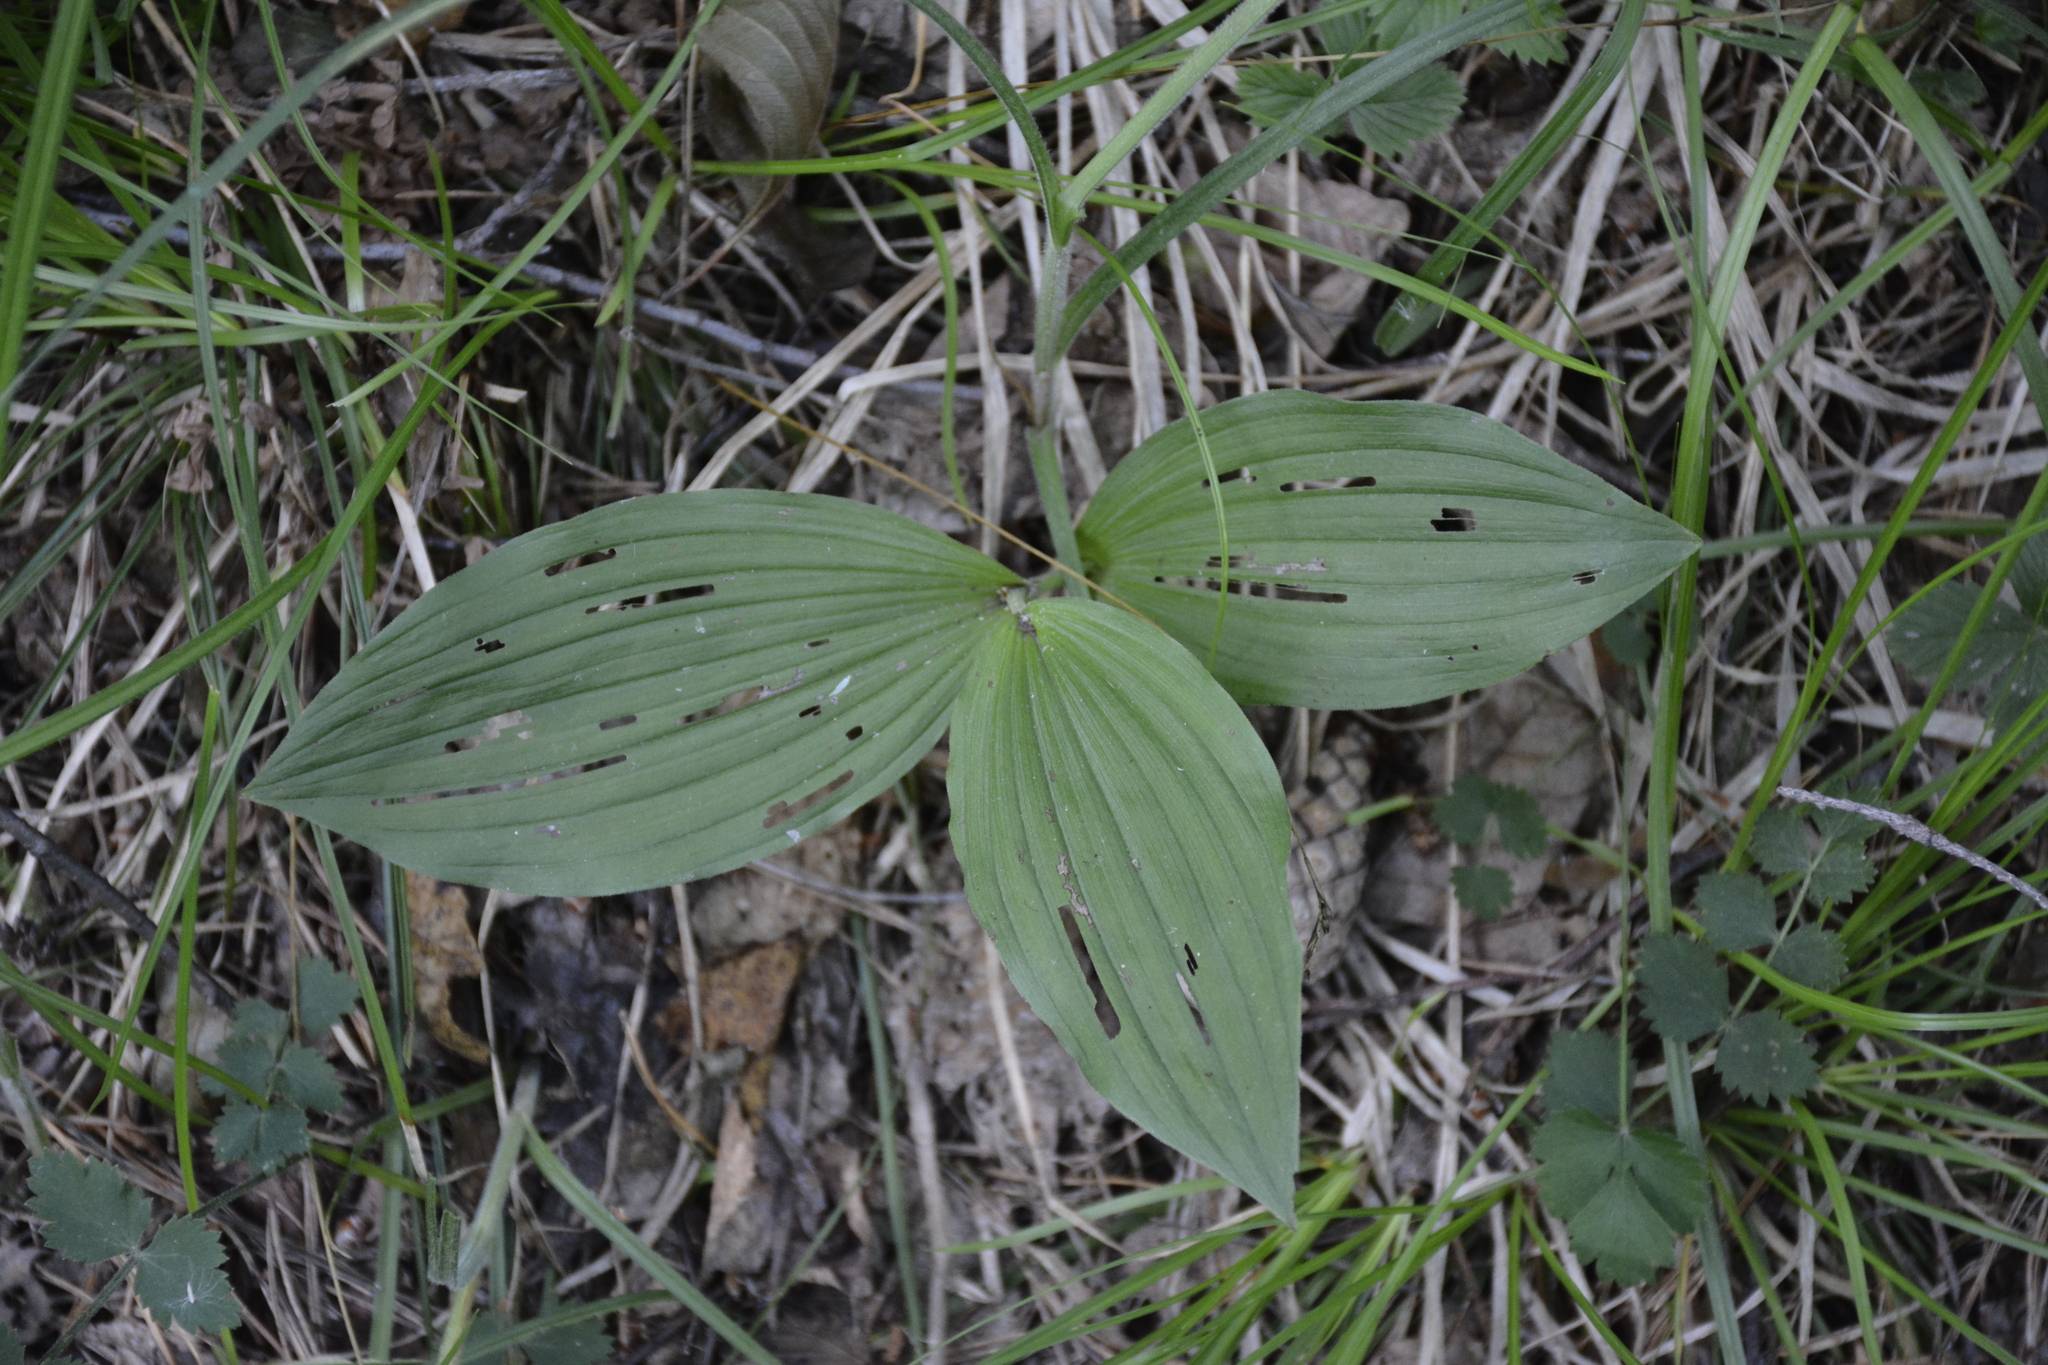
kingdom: Plantae
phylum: Tracheophyta
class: Liliopsida
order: Asparagales
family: Orchidaceae
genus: Cypripedium
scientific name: Cypripedium calceolus
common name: Lady's-slipper
